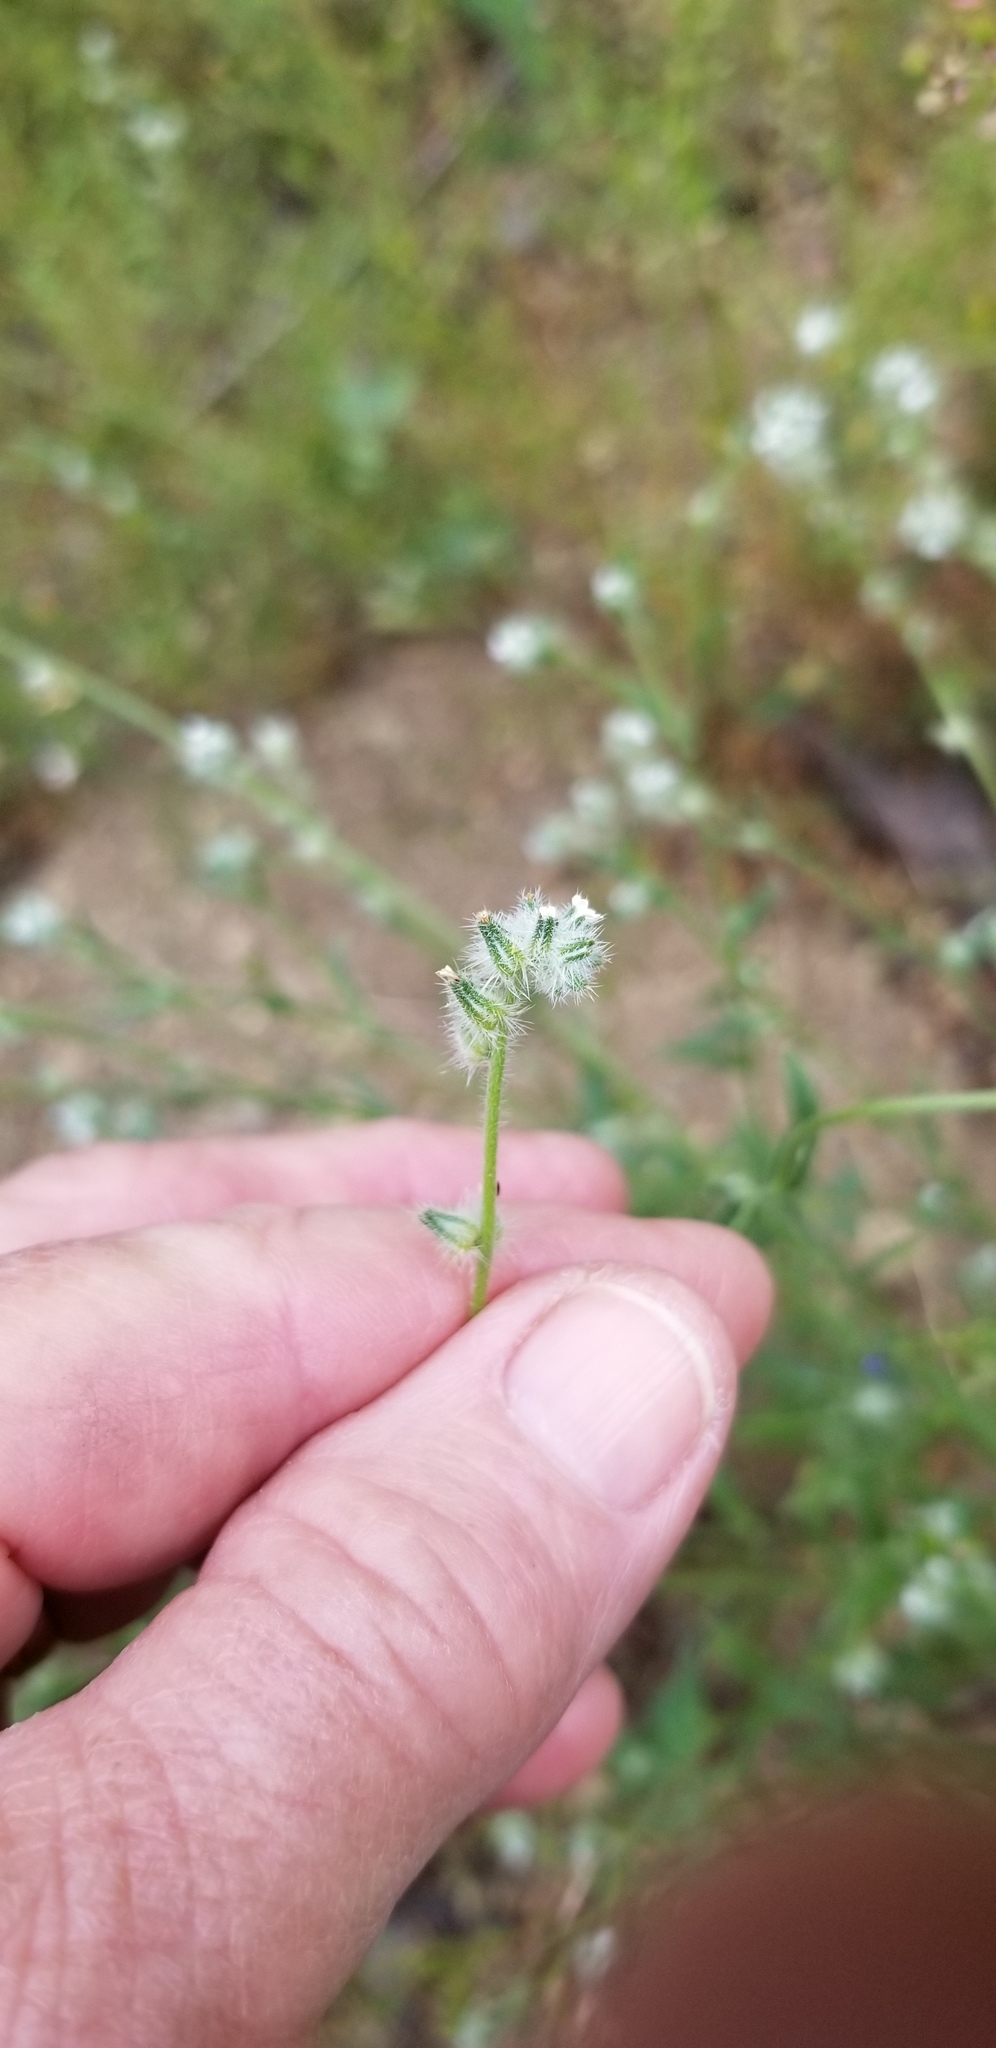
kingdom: Plantae
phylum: Tracheophyta
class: Magnoliopsida
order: Ericales
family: Polemoniaceae
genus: Collomia
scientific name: Collomia grandiflora
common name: California strawflower
